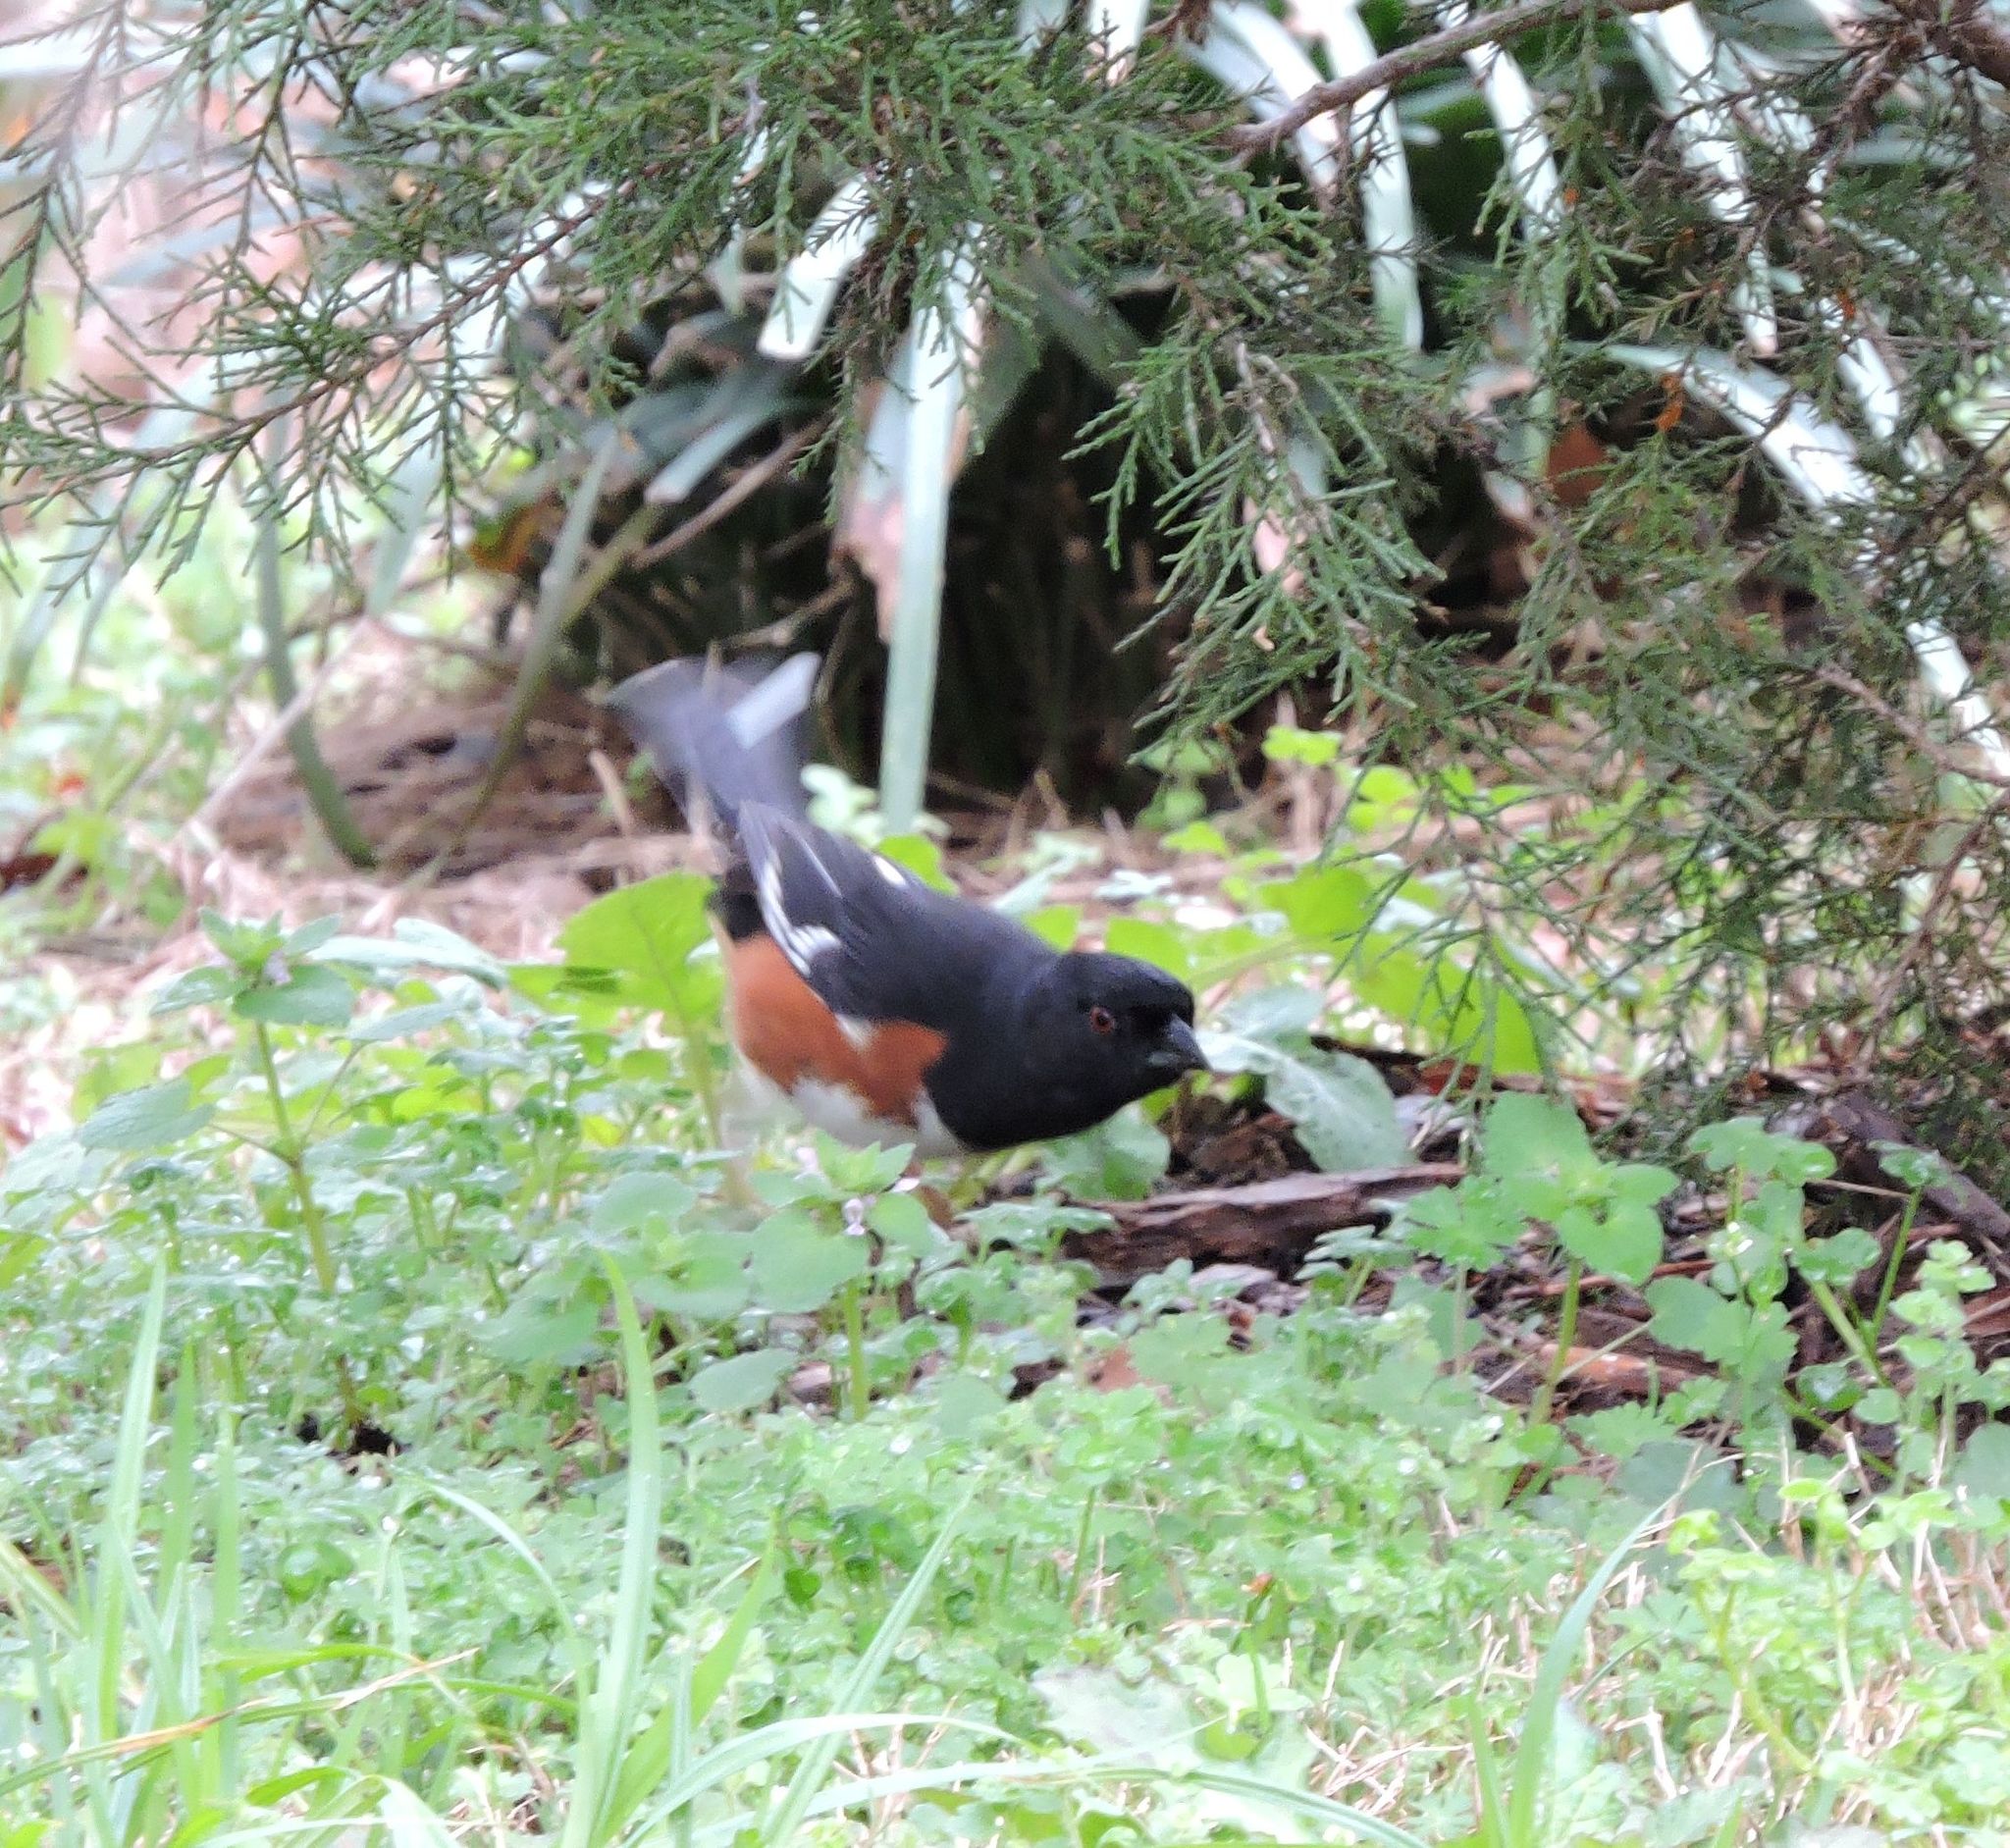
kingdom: Animalia
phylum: Chordata
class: Aves
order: Passeriformes
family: Passerellidae
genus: Pipilo
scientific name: Pipilo erythrophthalmus
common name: Eastern towhee
